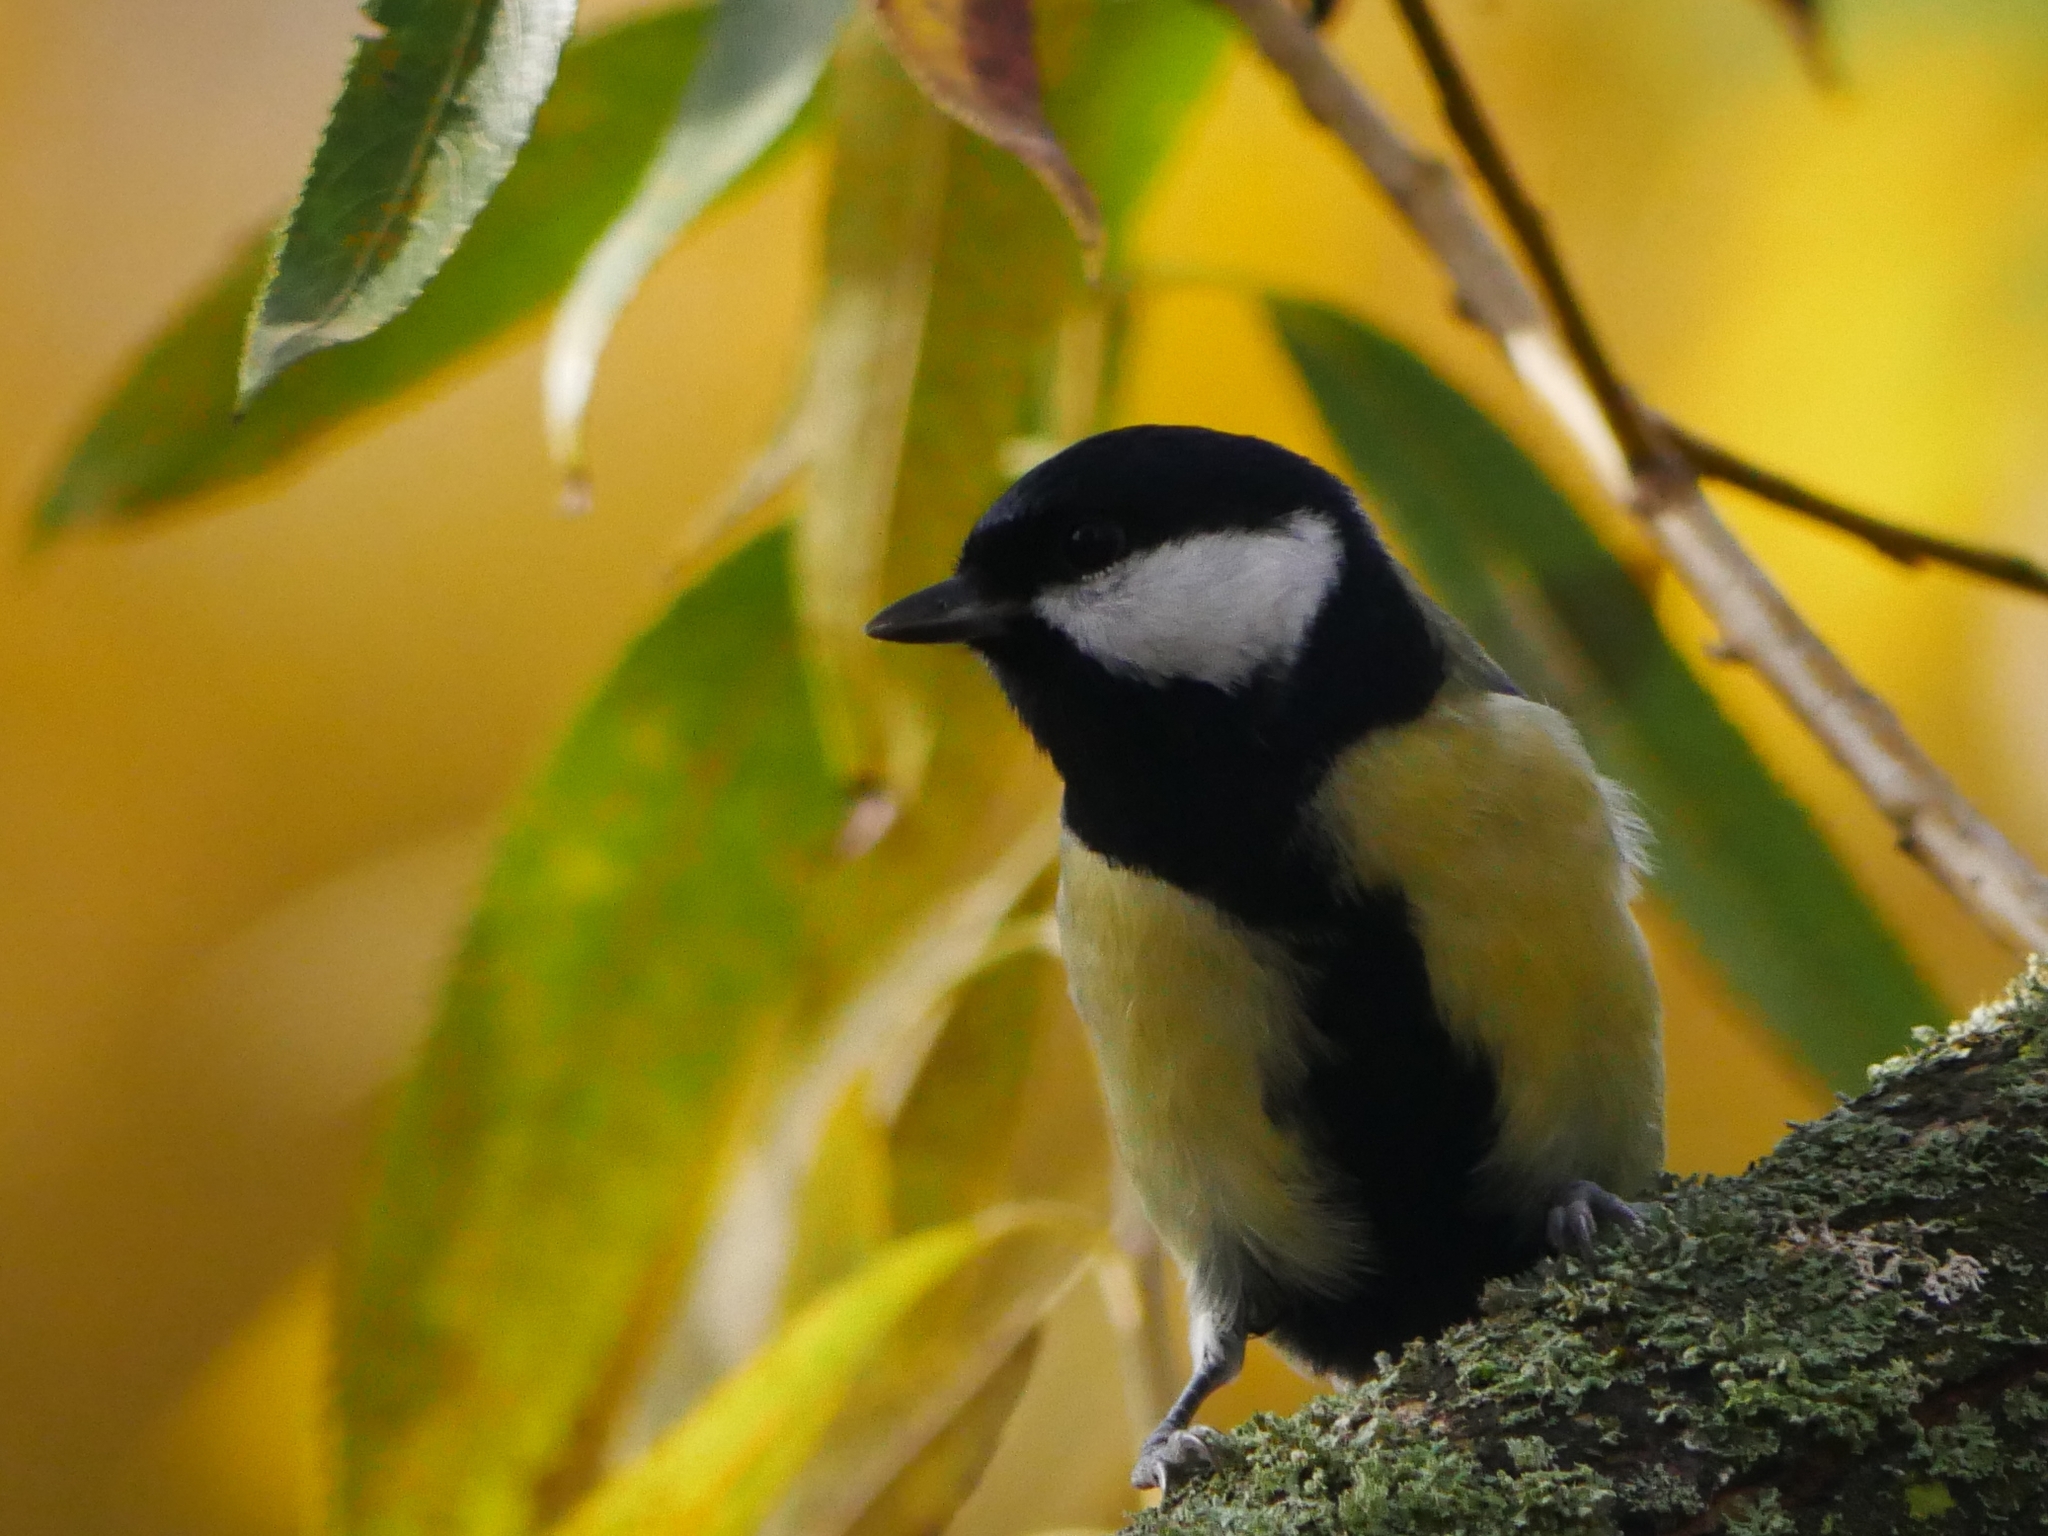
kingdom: Animalia
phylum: Chordata
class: Aves
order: Passeriformes
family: Paridae
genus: Parus
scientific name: Parus major
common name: Great tit
